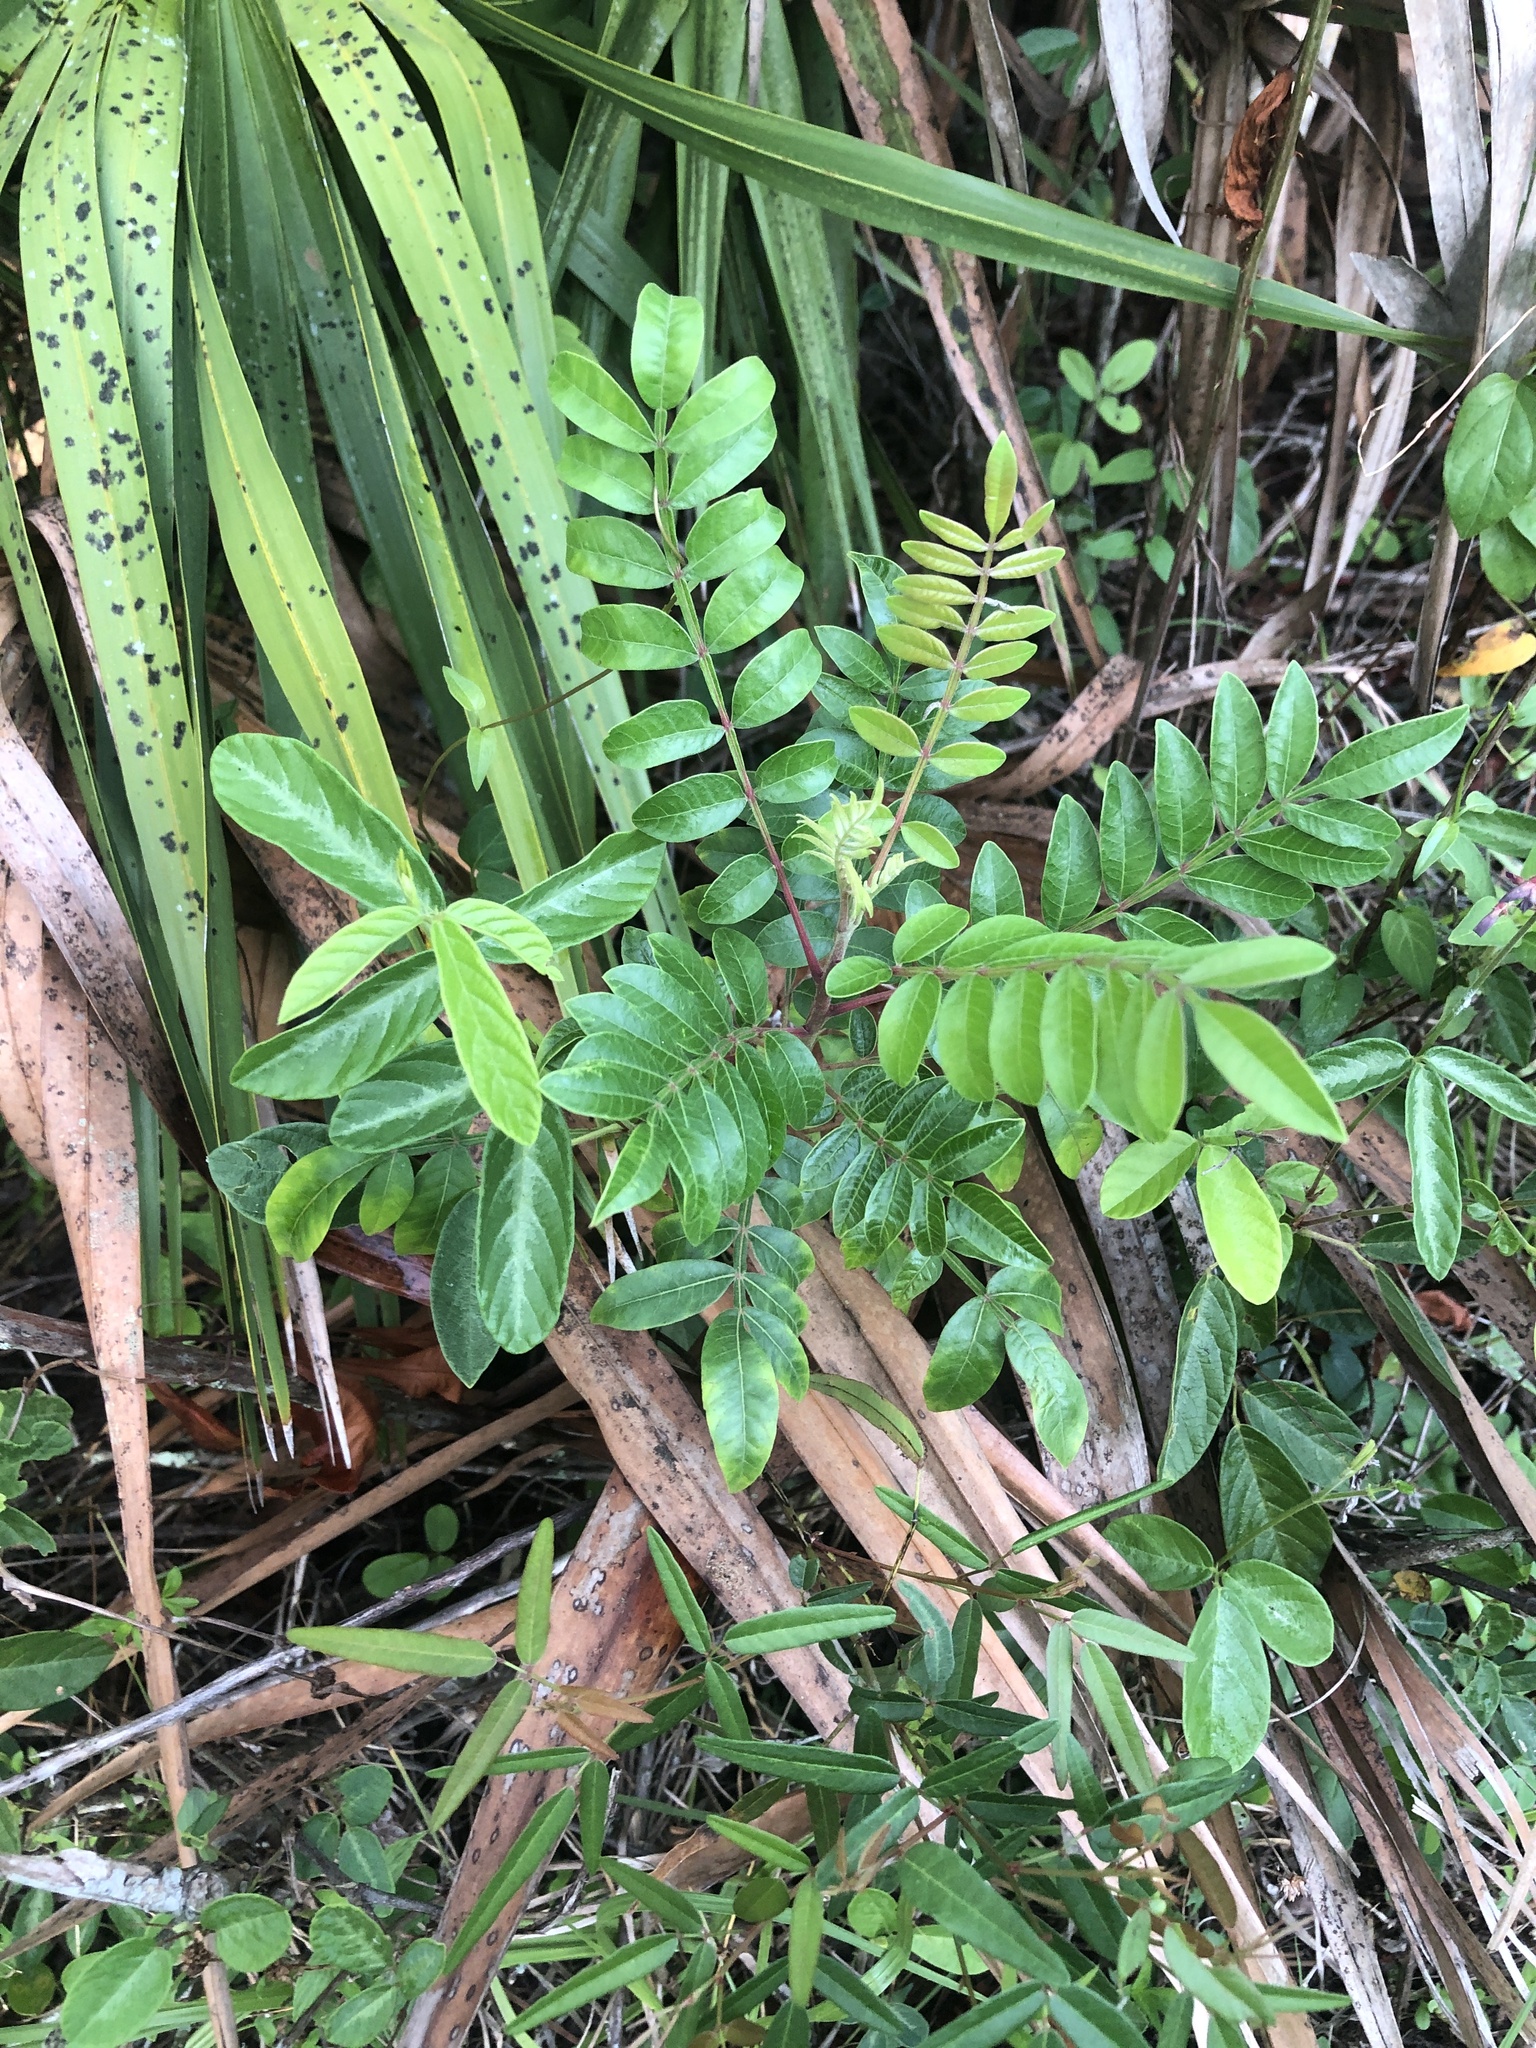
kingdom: Plantae
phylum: Tracheophyta
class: Magnoliopsida
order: Sapindales
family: Anacardiaceae
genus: Rhus
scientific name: Rhus copallina
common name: Shining sumac
